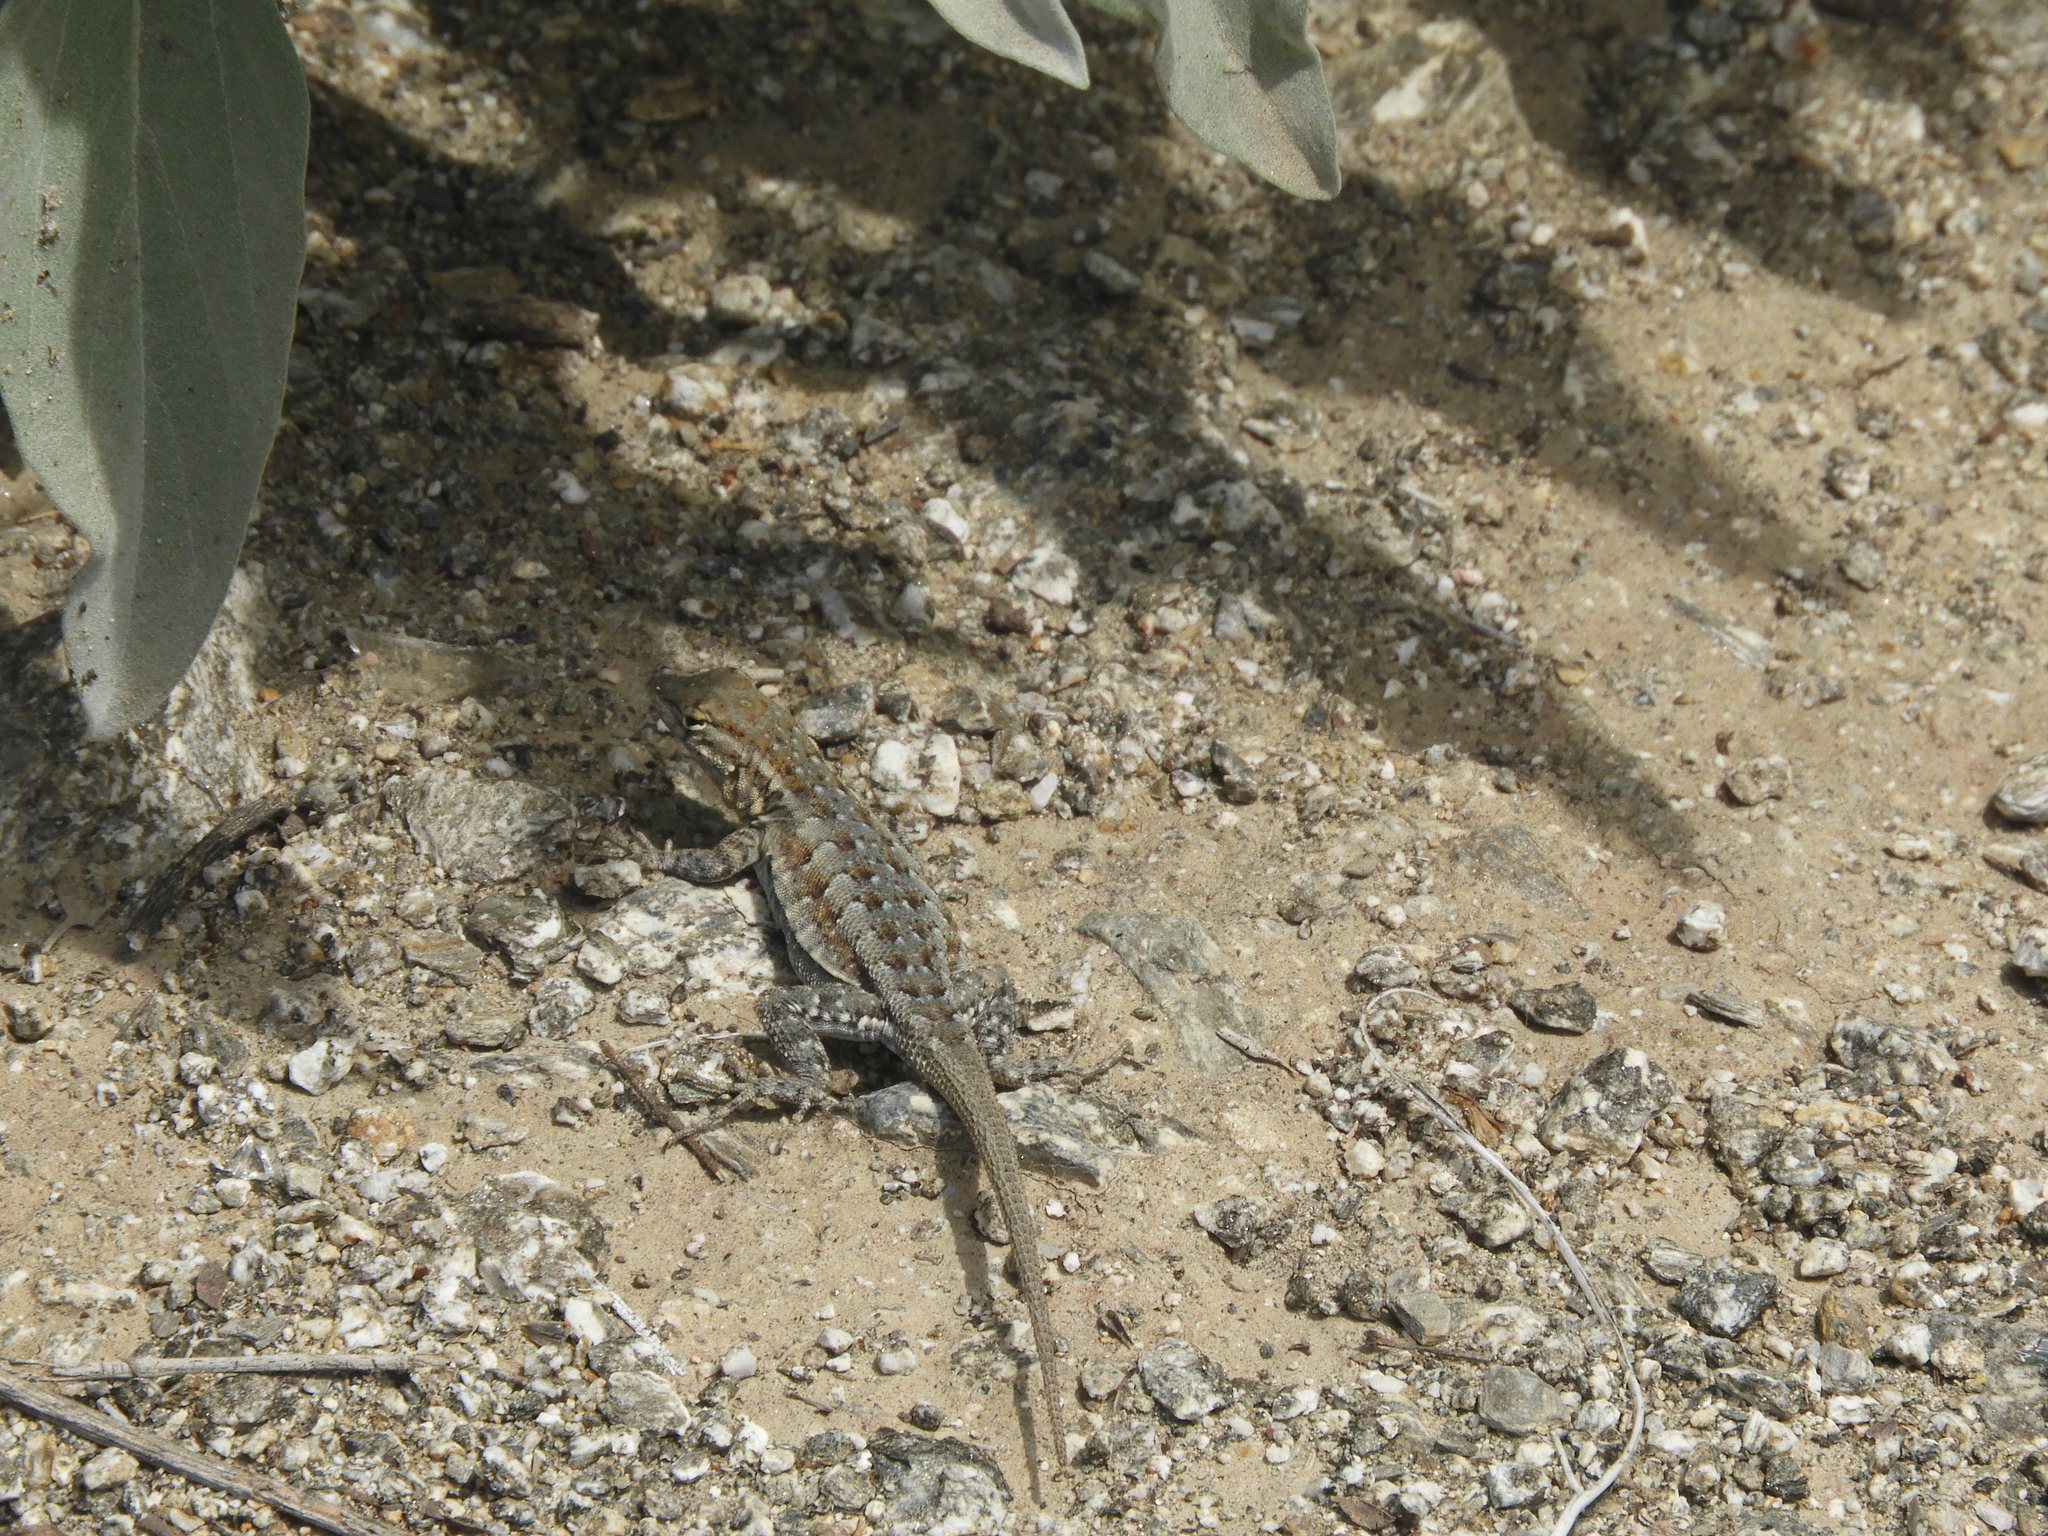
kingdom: Animalia
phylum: Chordata
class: Squamata
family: Phrynosomatidae
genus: Uta
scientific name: Uta stansburiana
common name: Side-blotched lizard
